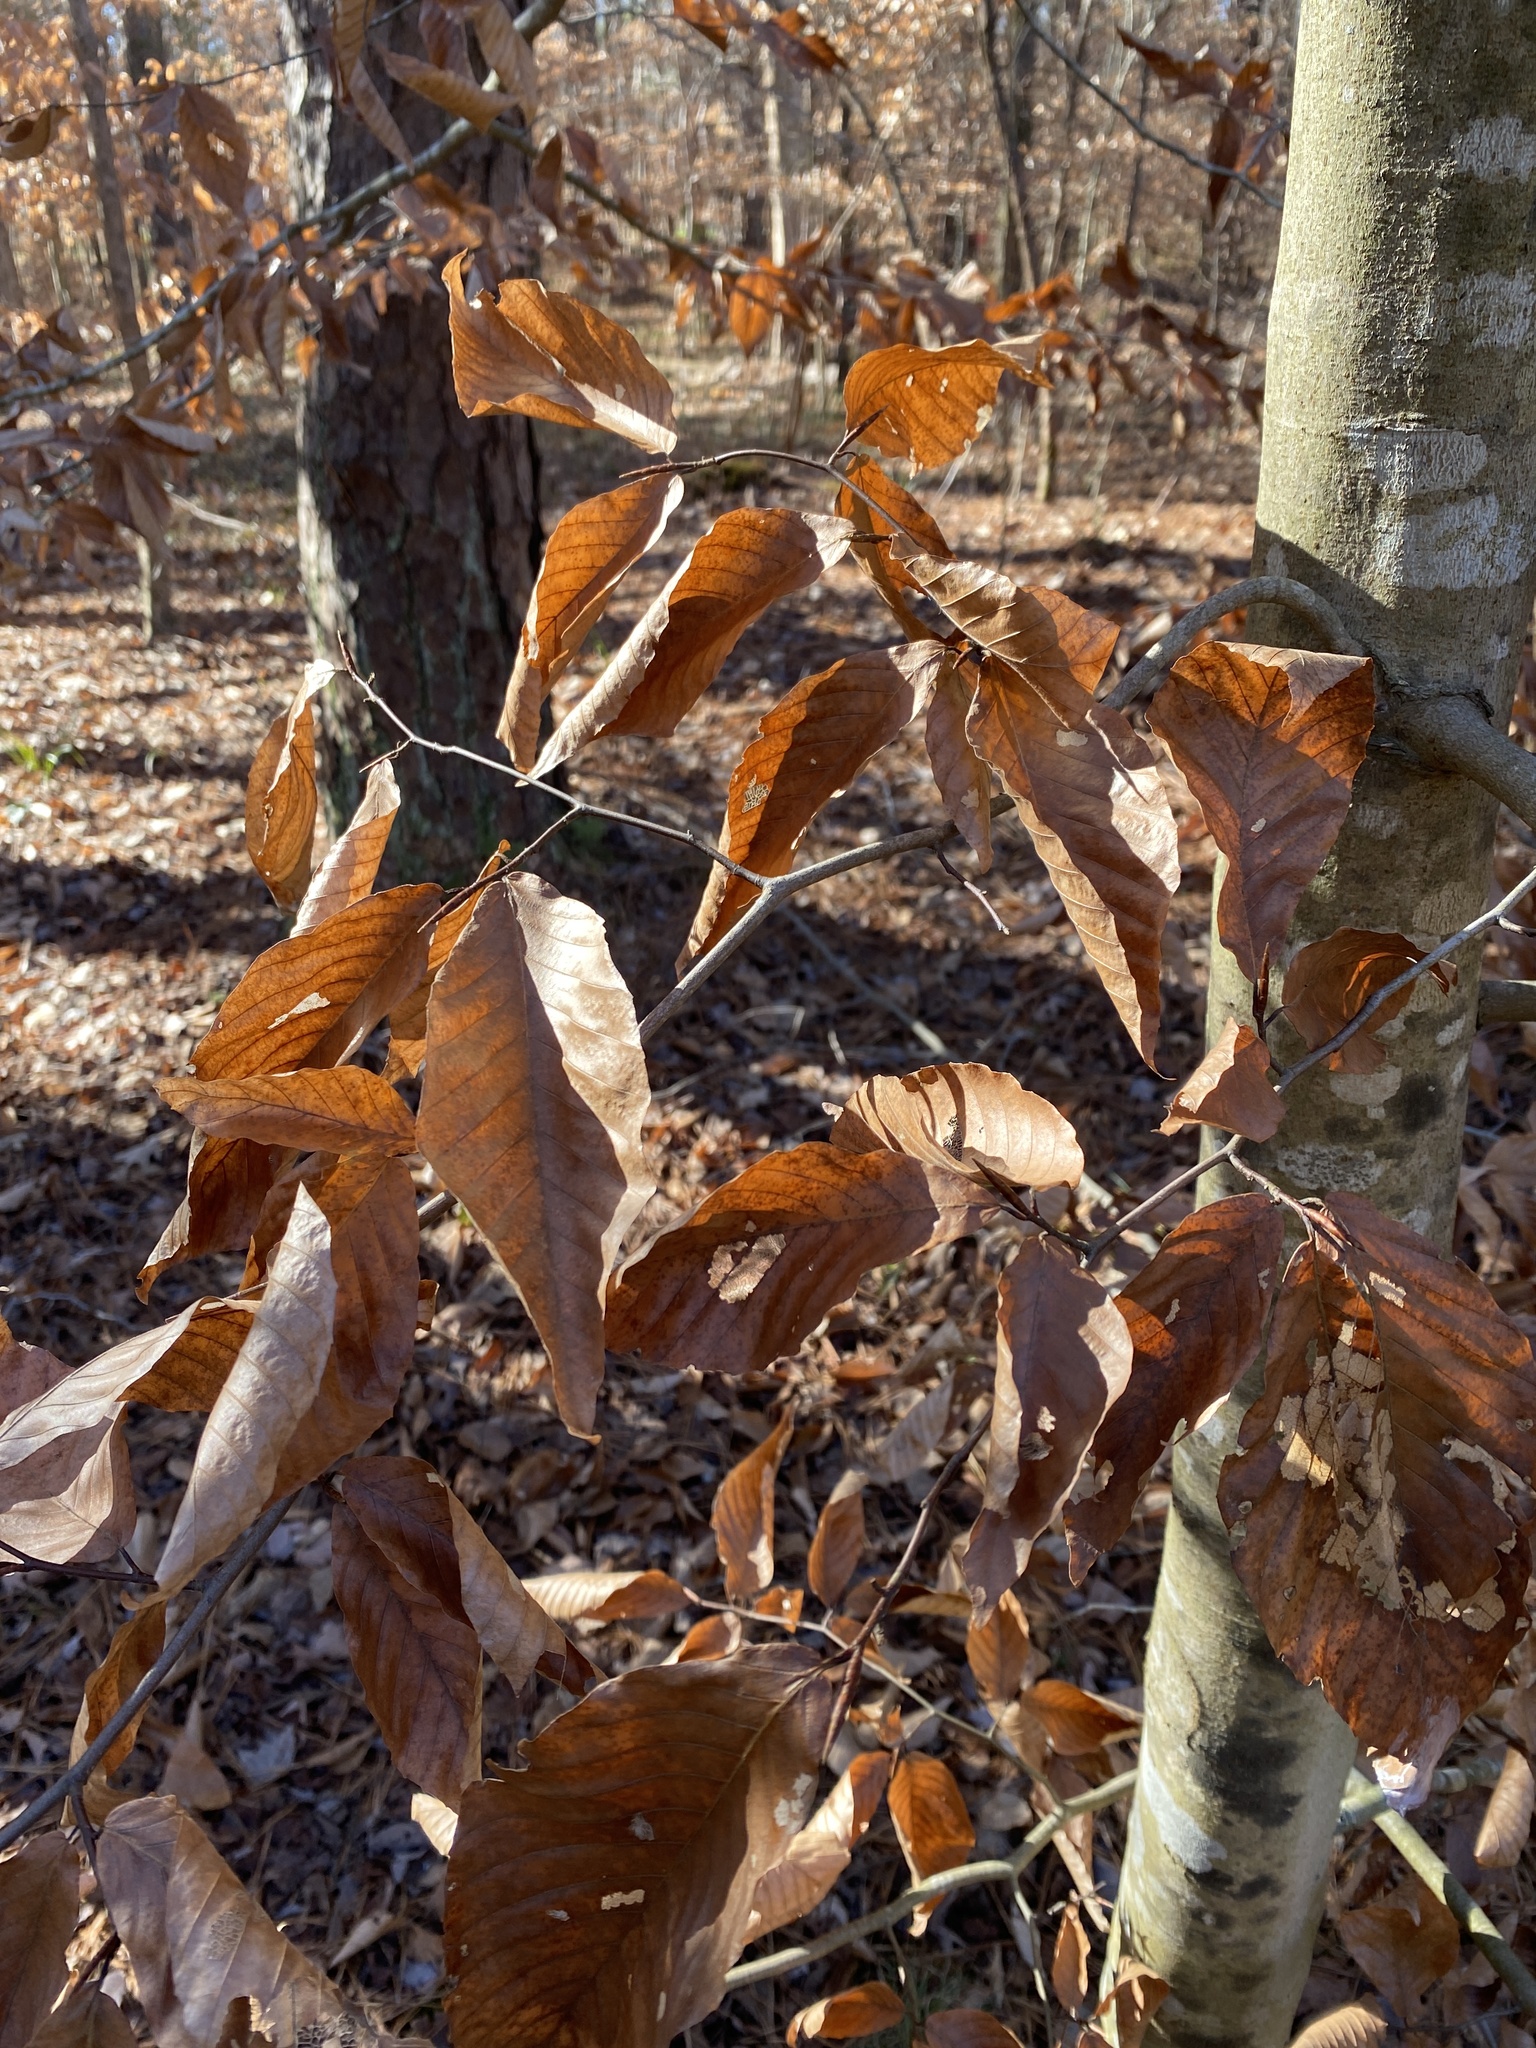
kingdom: Plantae
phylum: Tracheophyta
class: Magnoliopsida
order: Fagales
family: Fagaceae
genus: Fagus
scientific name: Fagus grandifolia
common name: American beech
